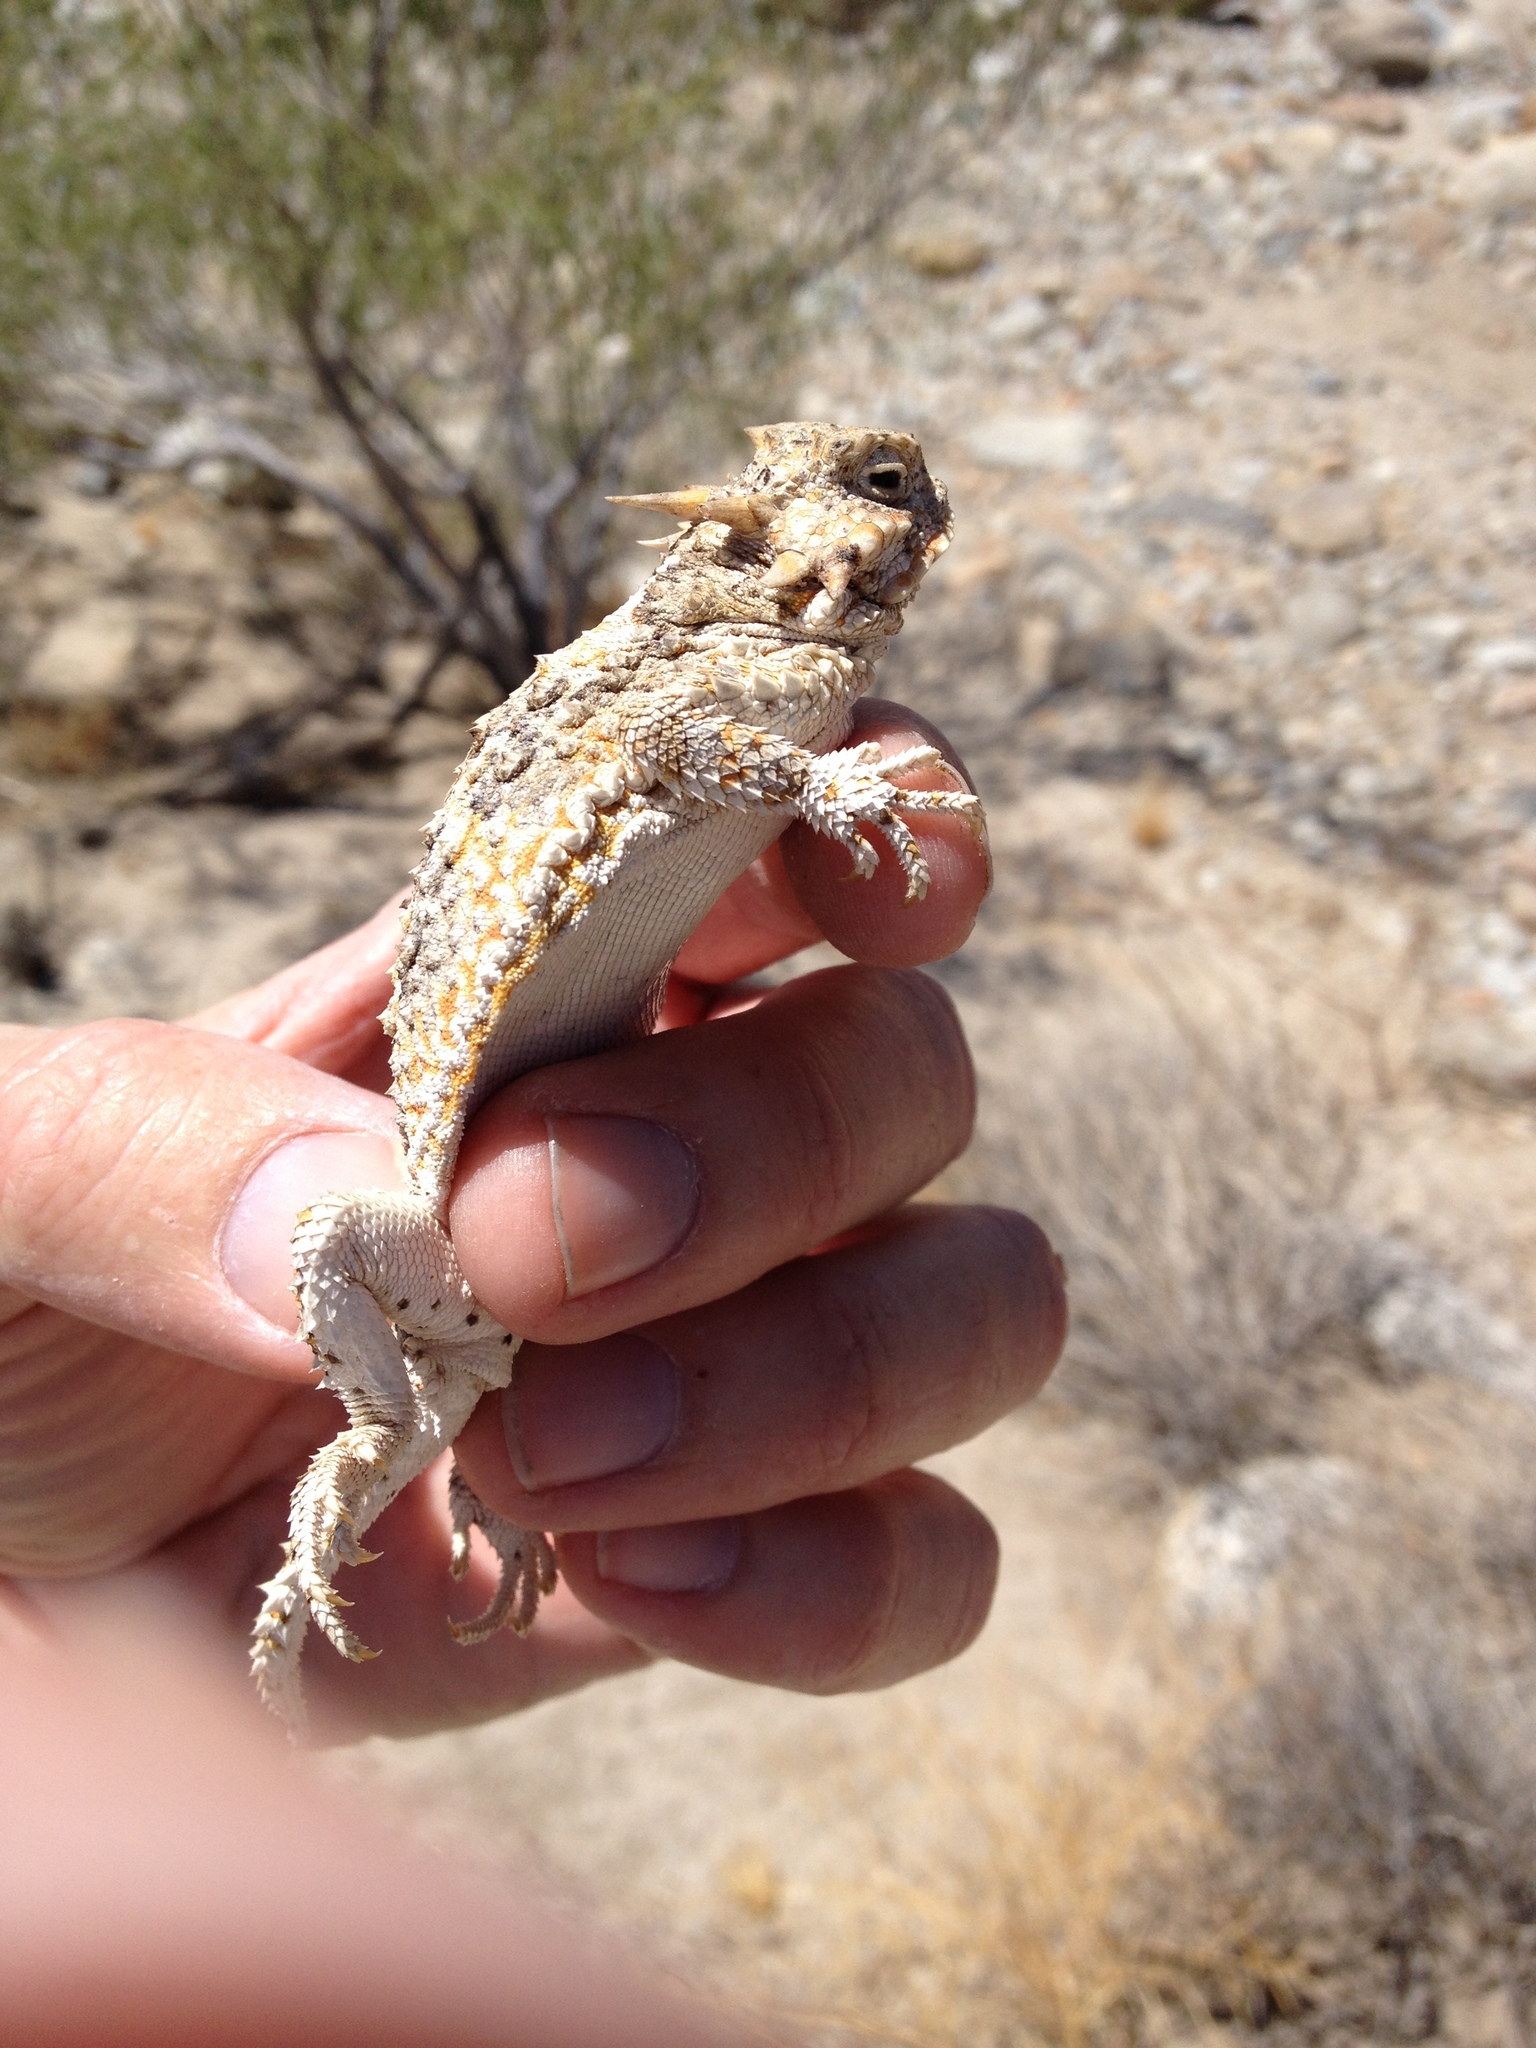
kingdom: Animalia
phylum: Chordata
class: Squamata
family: Phrynosomatidae
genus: Phrynosoma
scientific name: Phrynosoma platyrhinos
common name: Desert horned lizard
